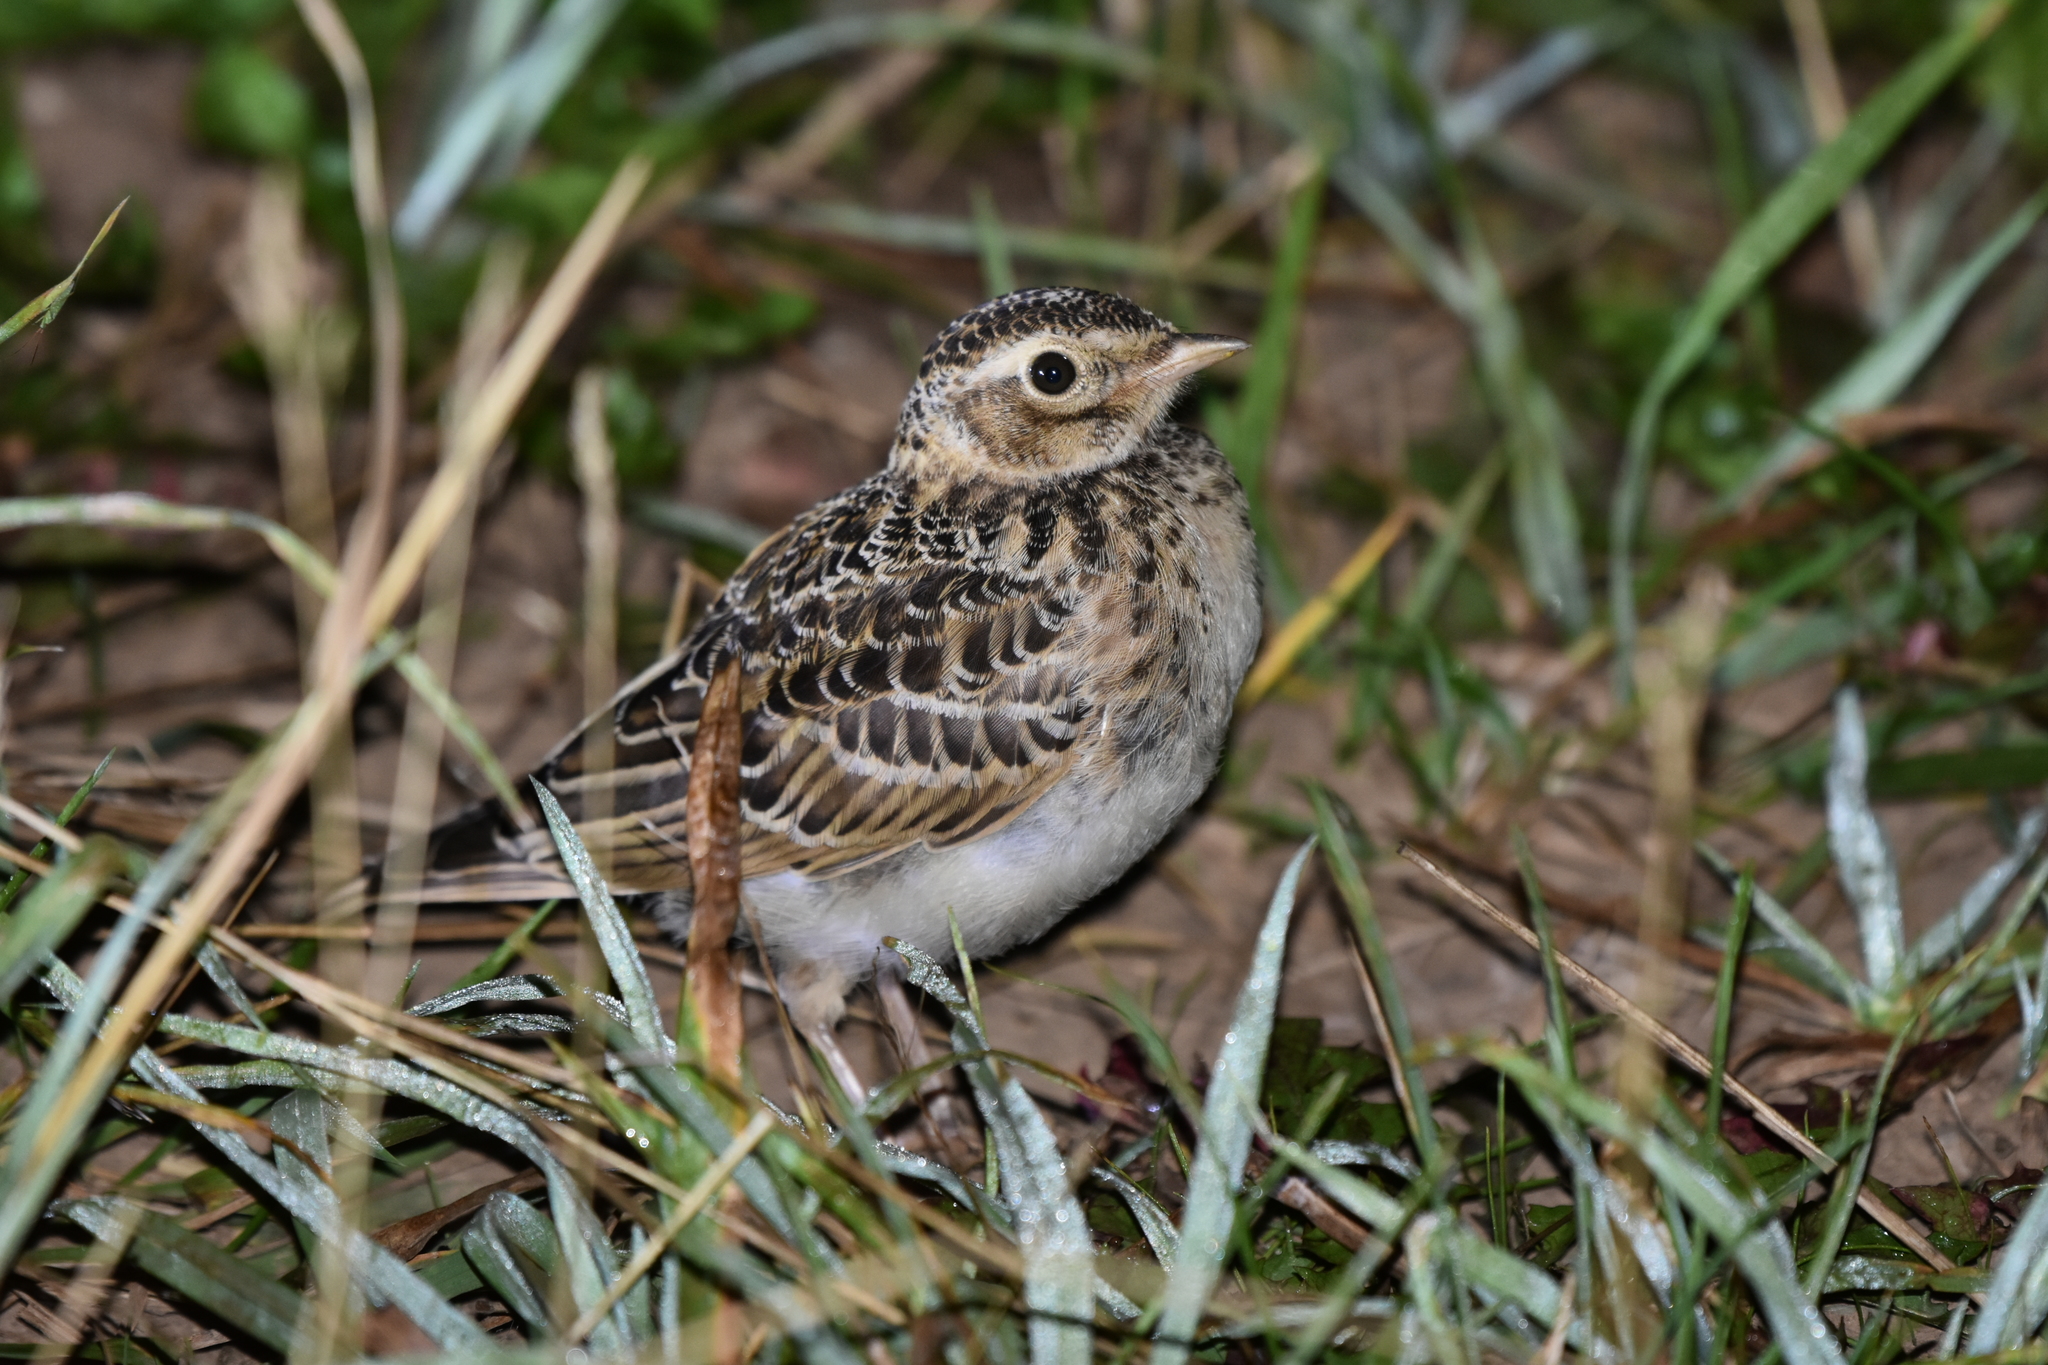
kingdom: Animalia
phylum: Chordata
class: Aves
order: Passeriformes
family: Alaudidae
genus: Alauda
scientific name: Alauda arvensis
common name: Eurasian skylark
